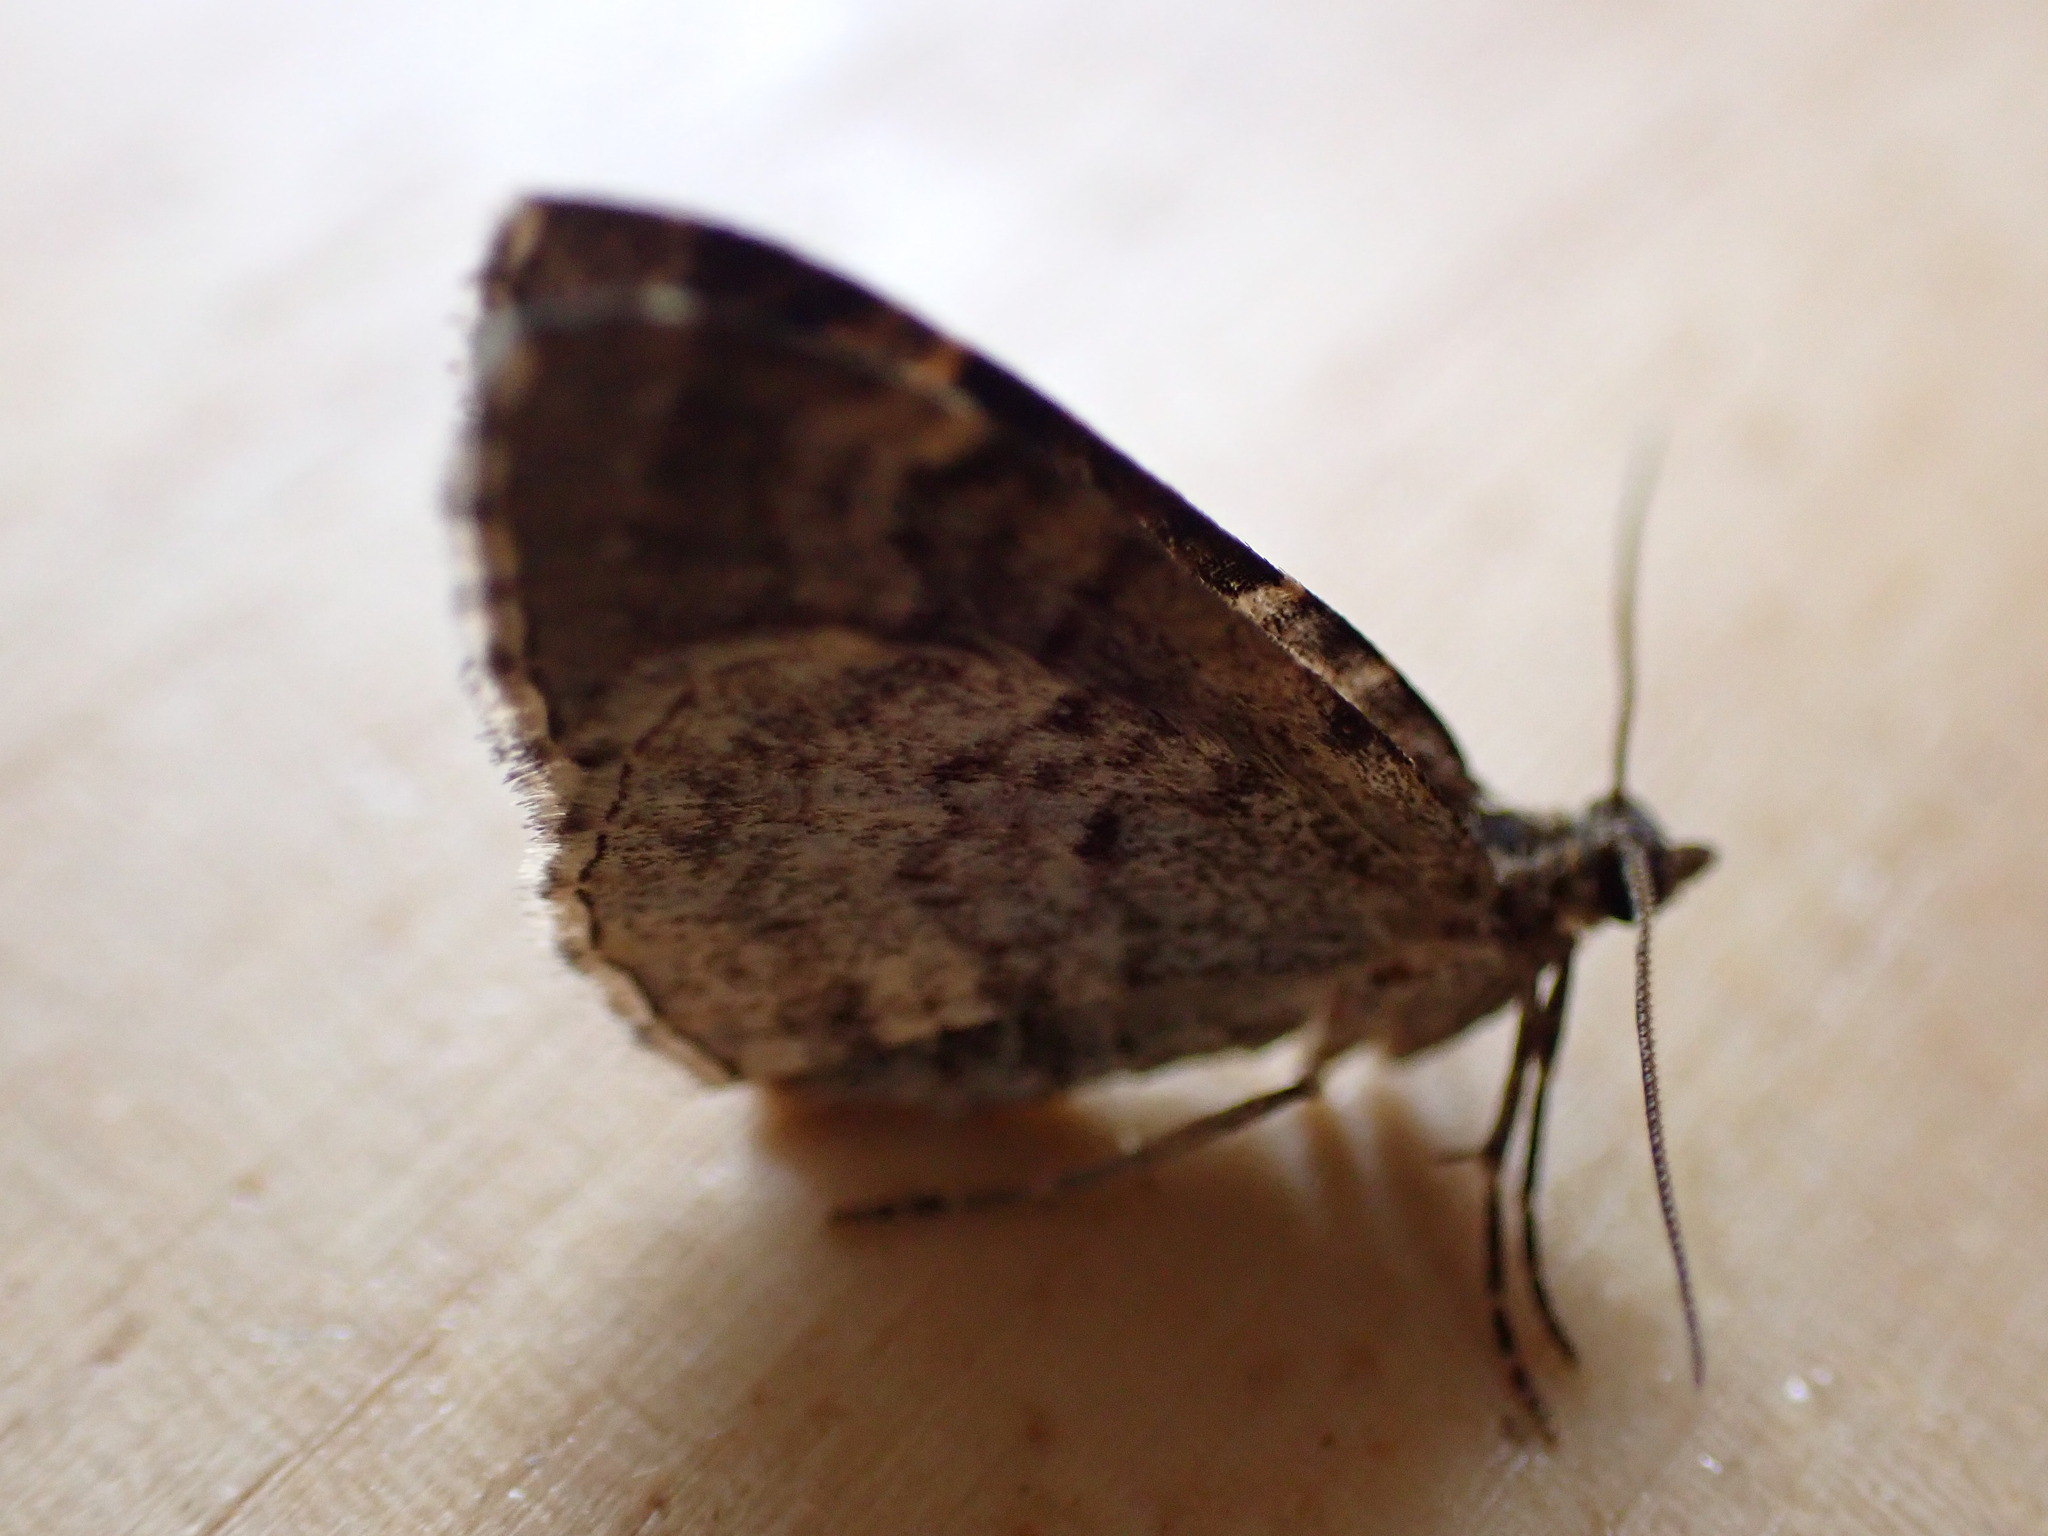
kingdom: Animalia
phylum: Arthropoda
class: Insecta
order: Lepidoptera
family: Geometridae
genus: Xanthorhoe
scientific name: Xanthorhoe designata
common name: Flame carpet
